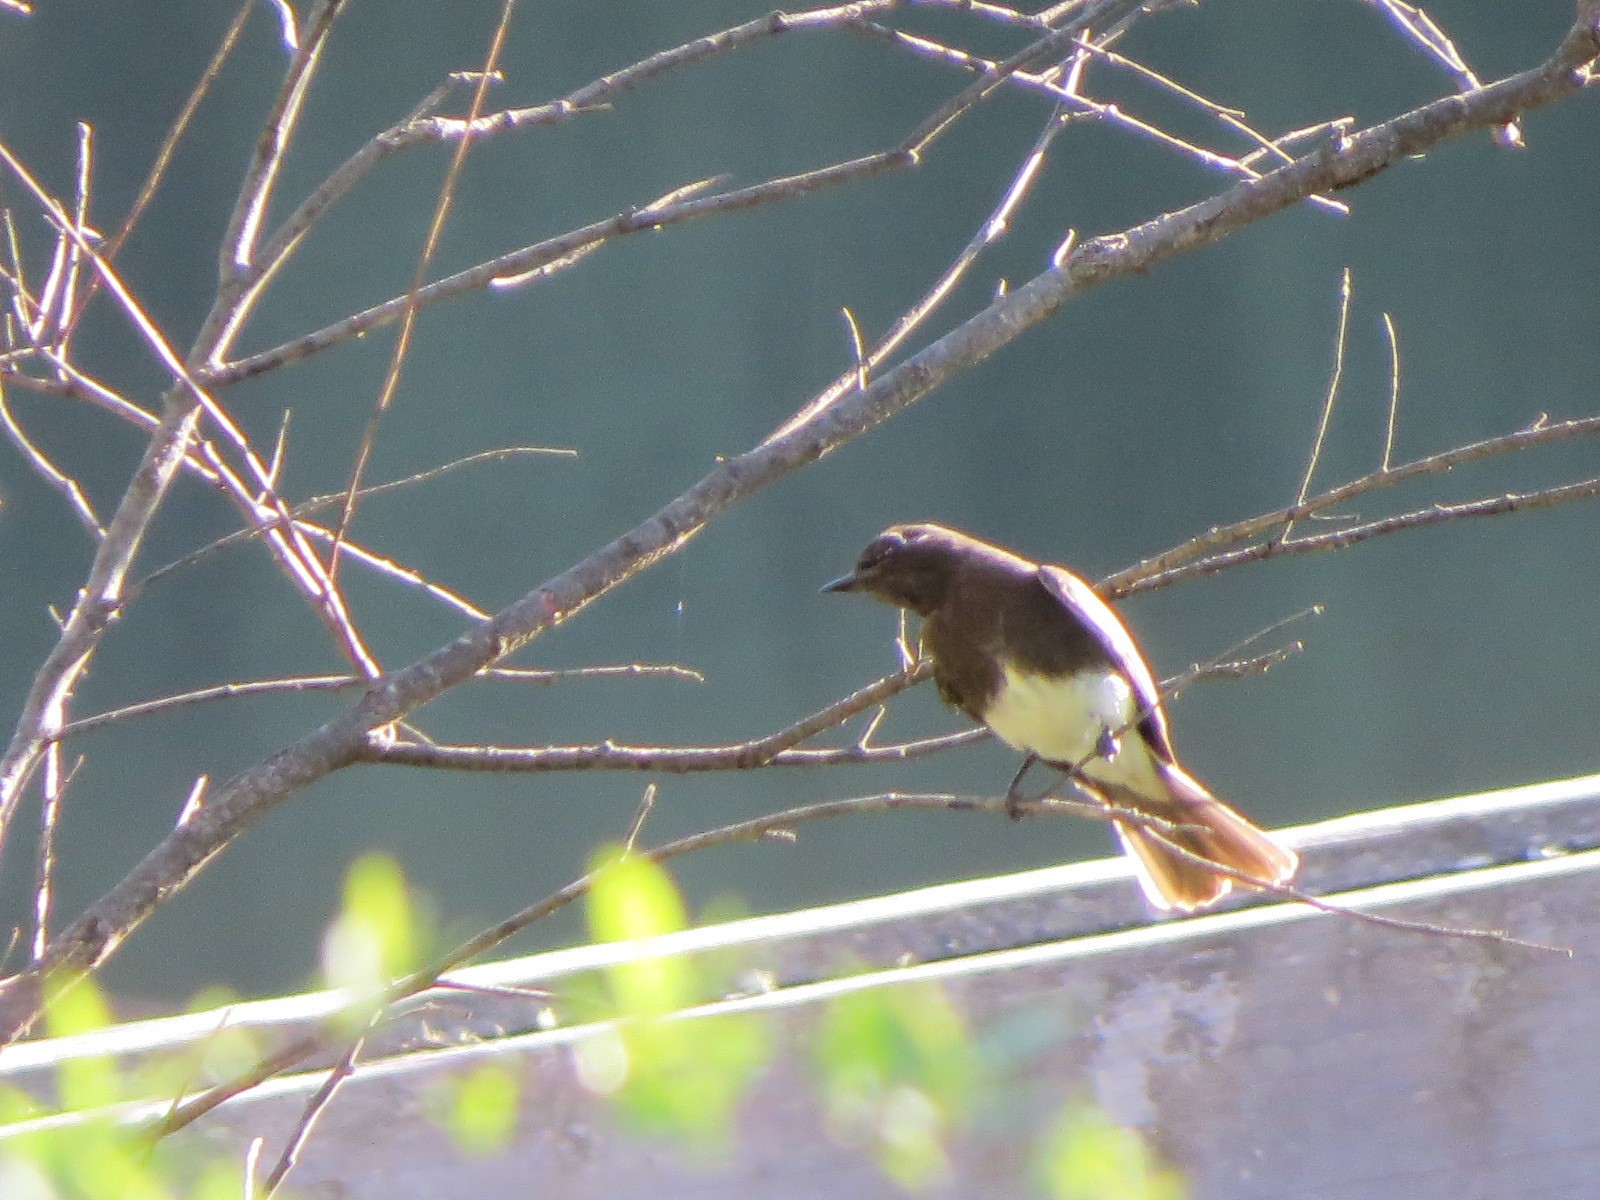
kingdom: Animalia
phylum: Chordata
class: Aves
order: Passeriformes
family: Tyrannidae
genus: Sayornis
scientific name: Sayornis nigricans
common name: Black phoebe
